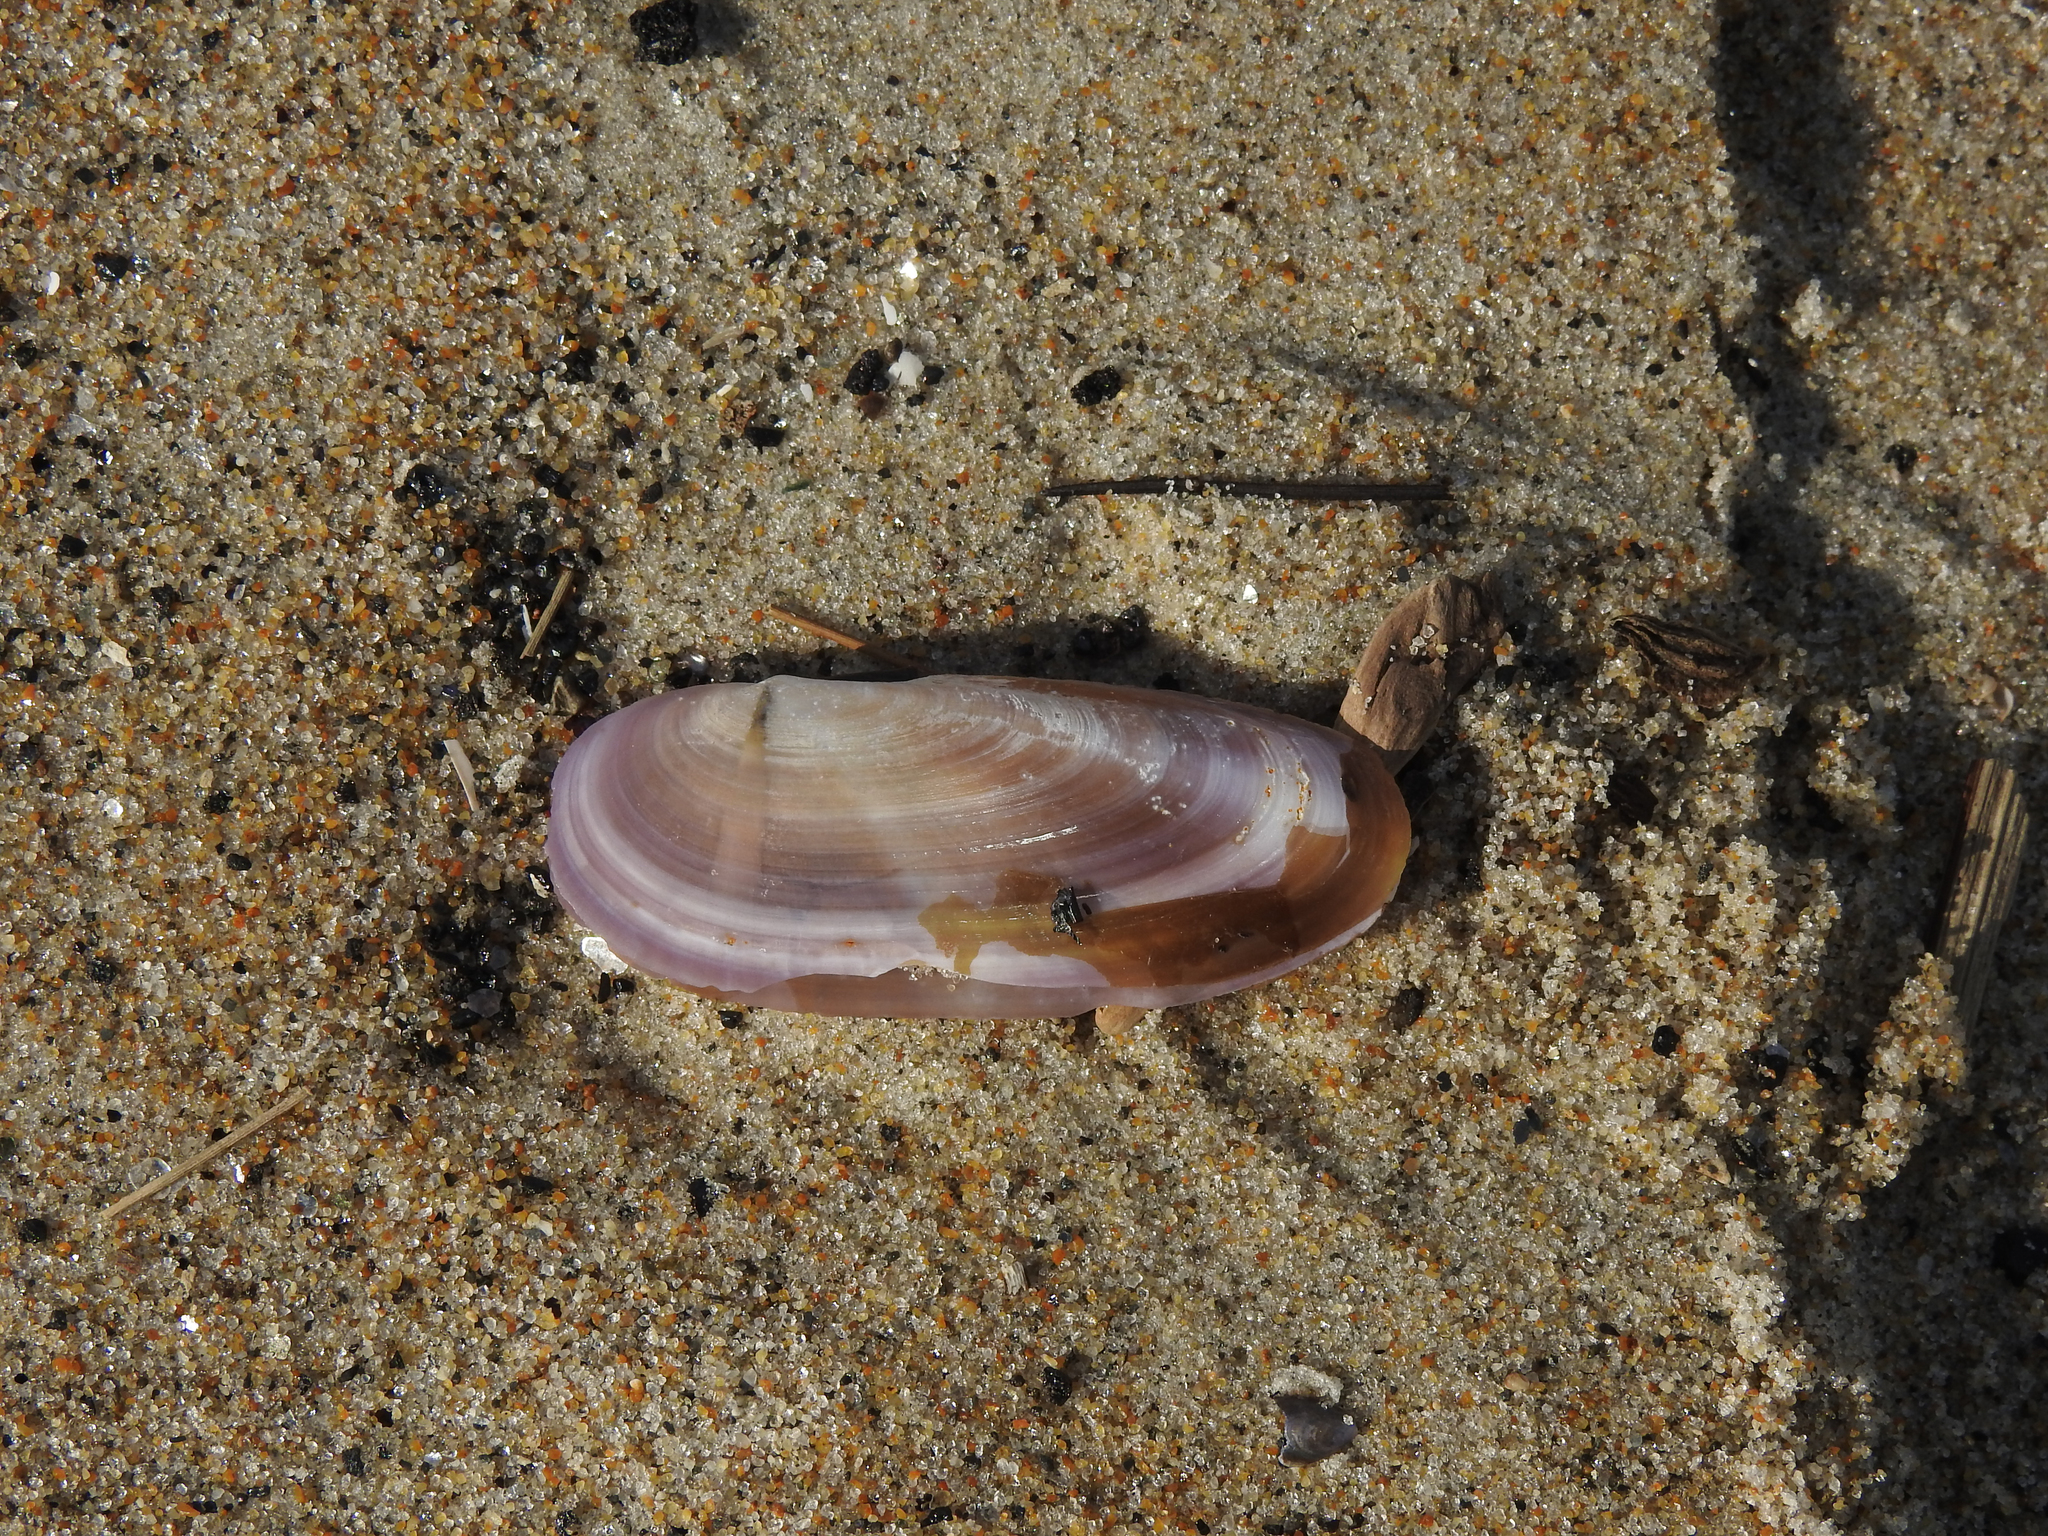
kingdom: Animalia
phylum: Mollusca
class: Bivalvia
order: Adapedonta
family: Pharidae
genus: Siliqua
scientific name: Siliqua costata
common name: Atlantic razor
